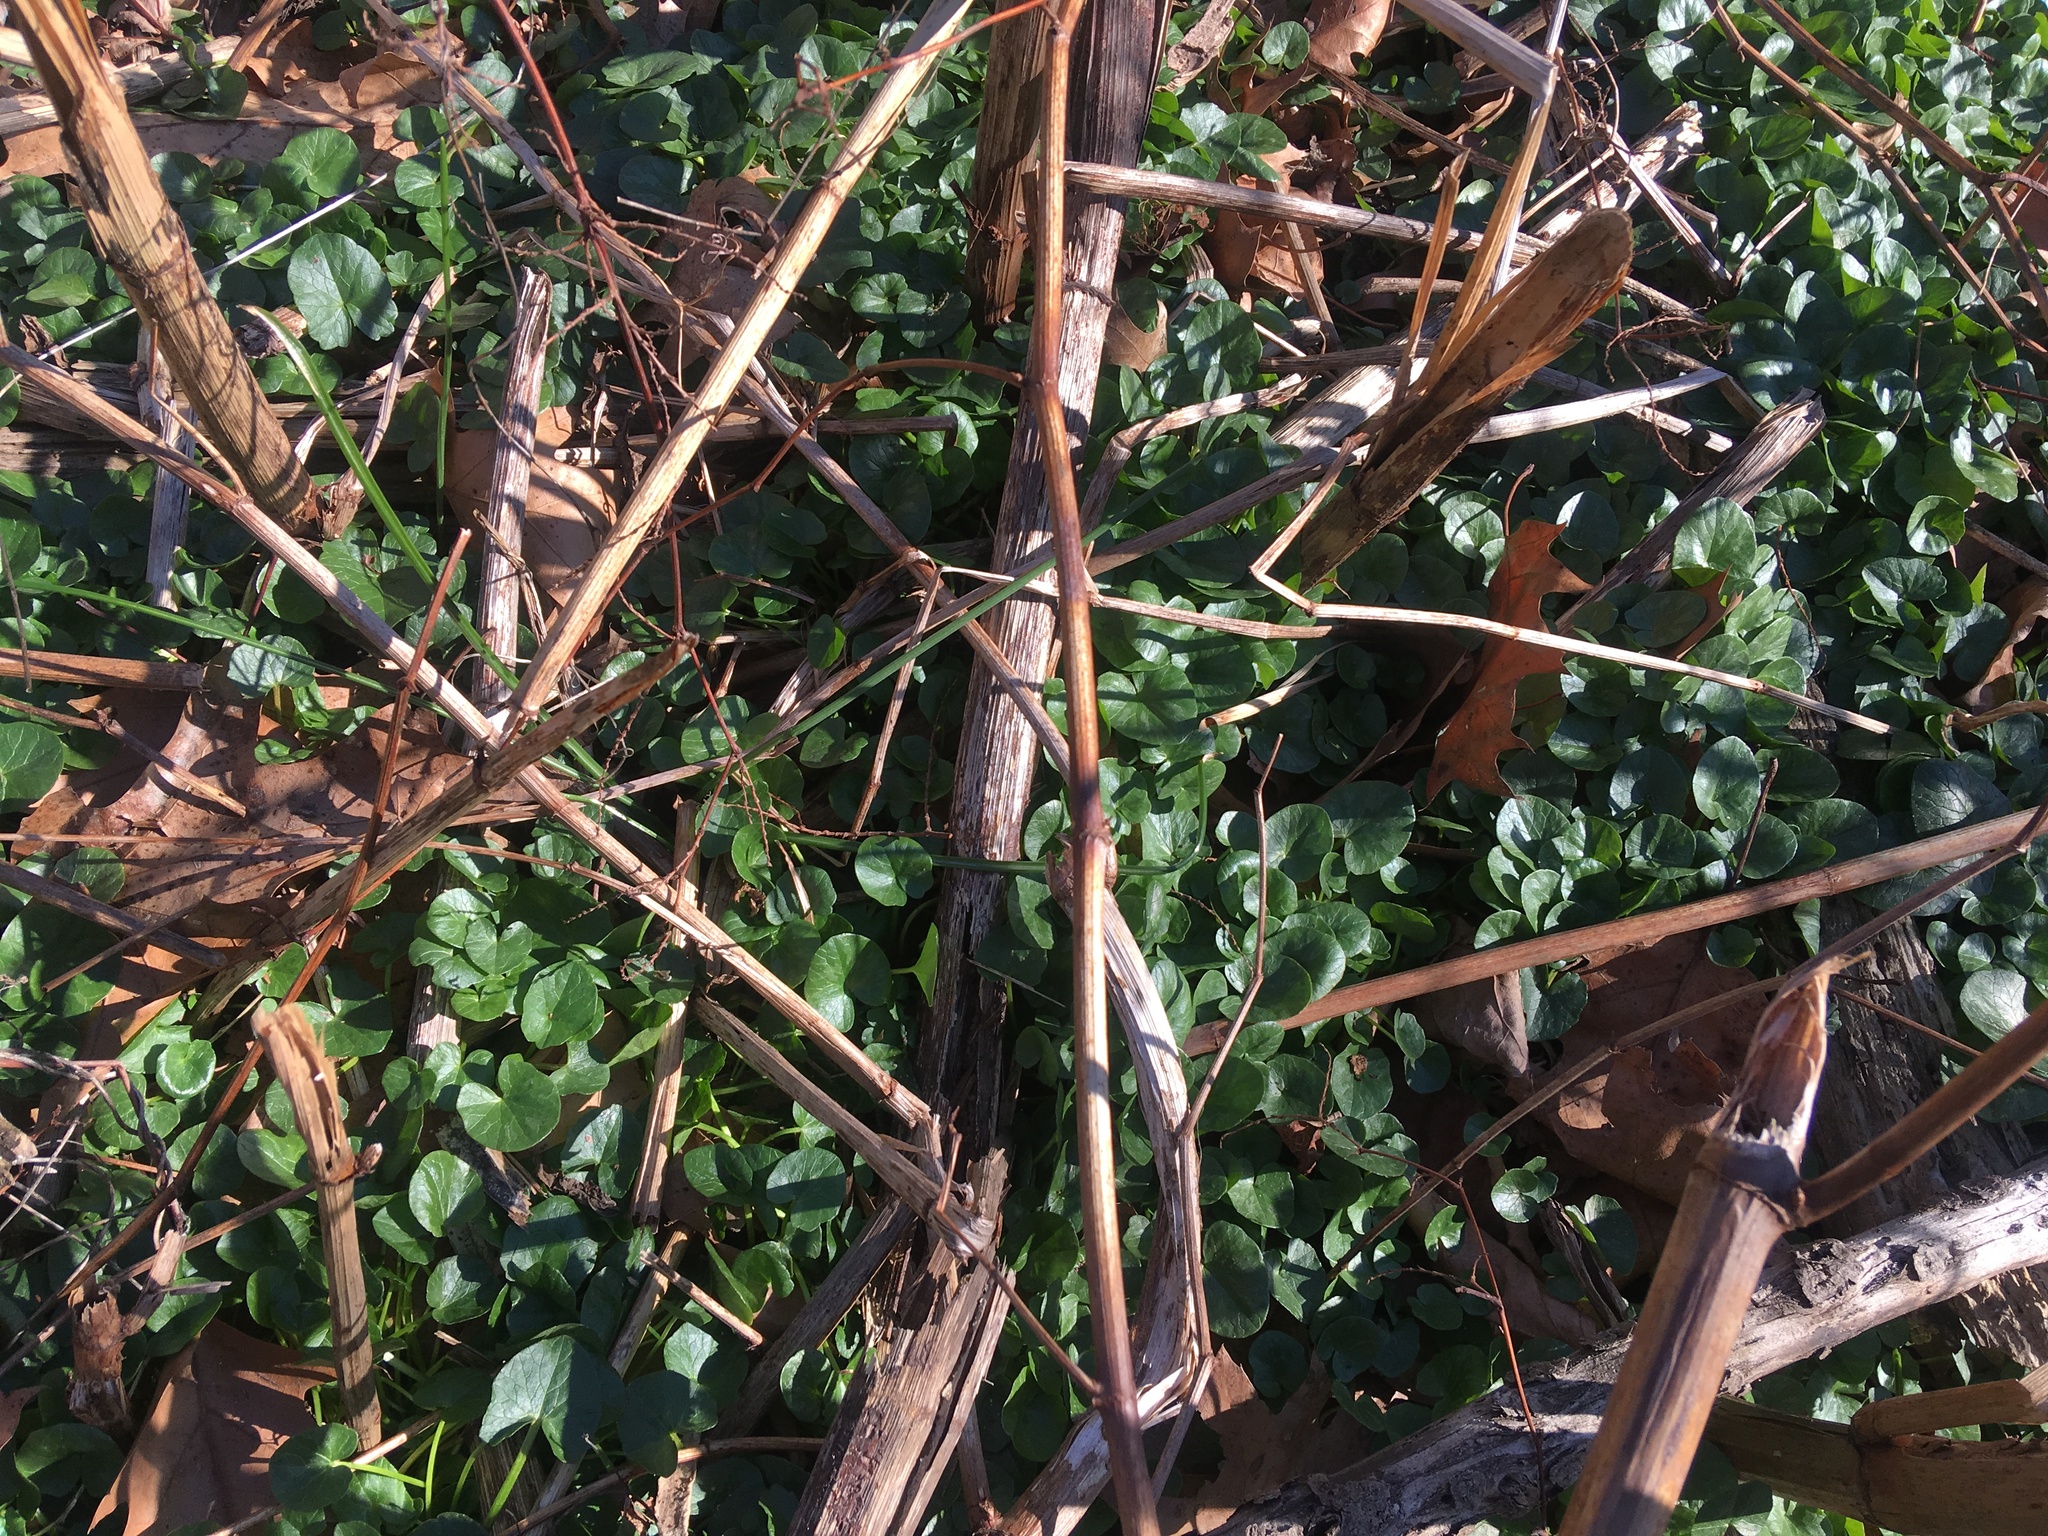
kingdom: Plantae
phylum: Tracheophyta
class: Magnoliopsida
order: Ranunculales
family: Ranunculaceae
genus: Ficaria
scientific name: Ficaria verna
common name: Lesser celandine
